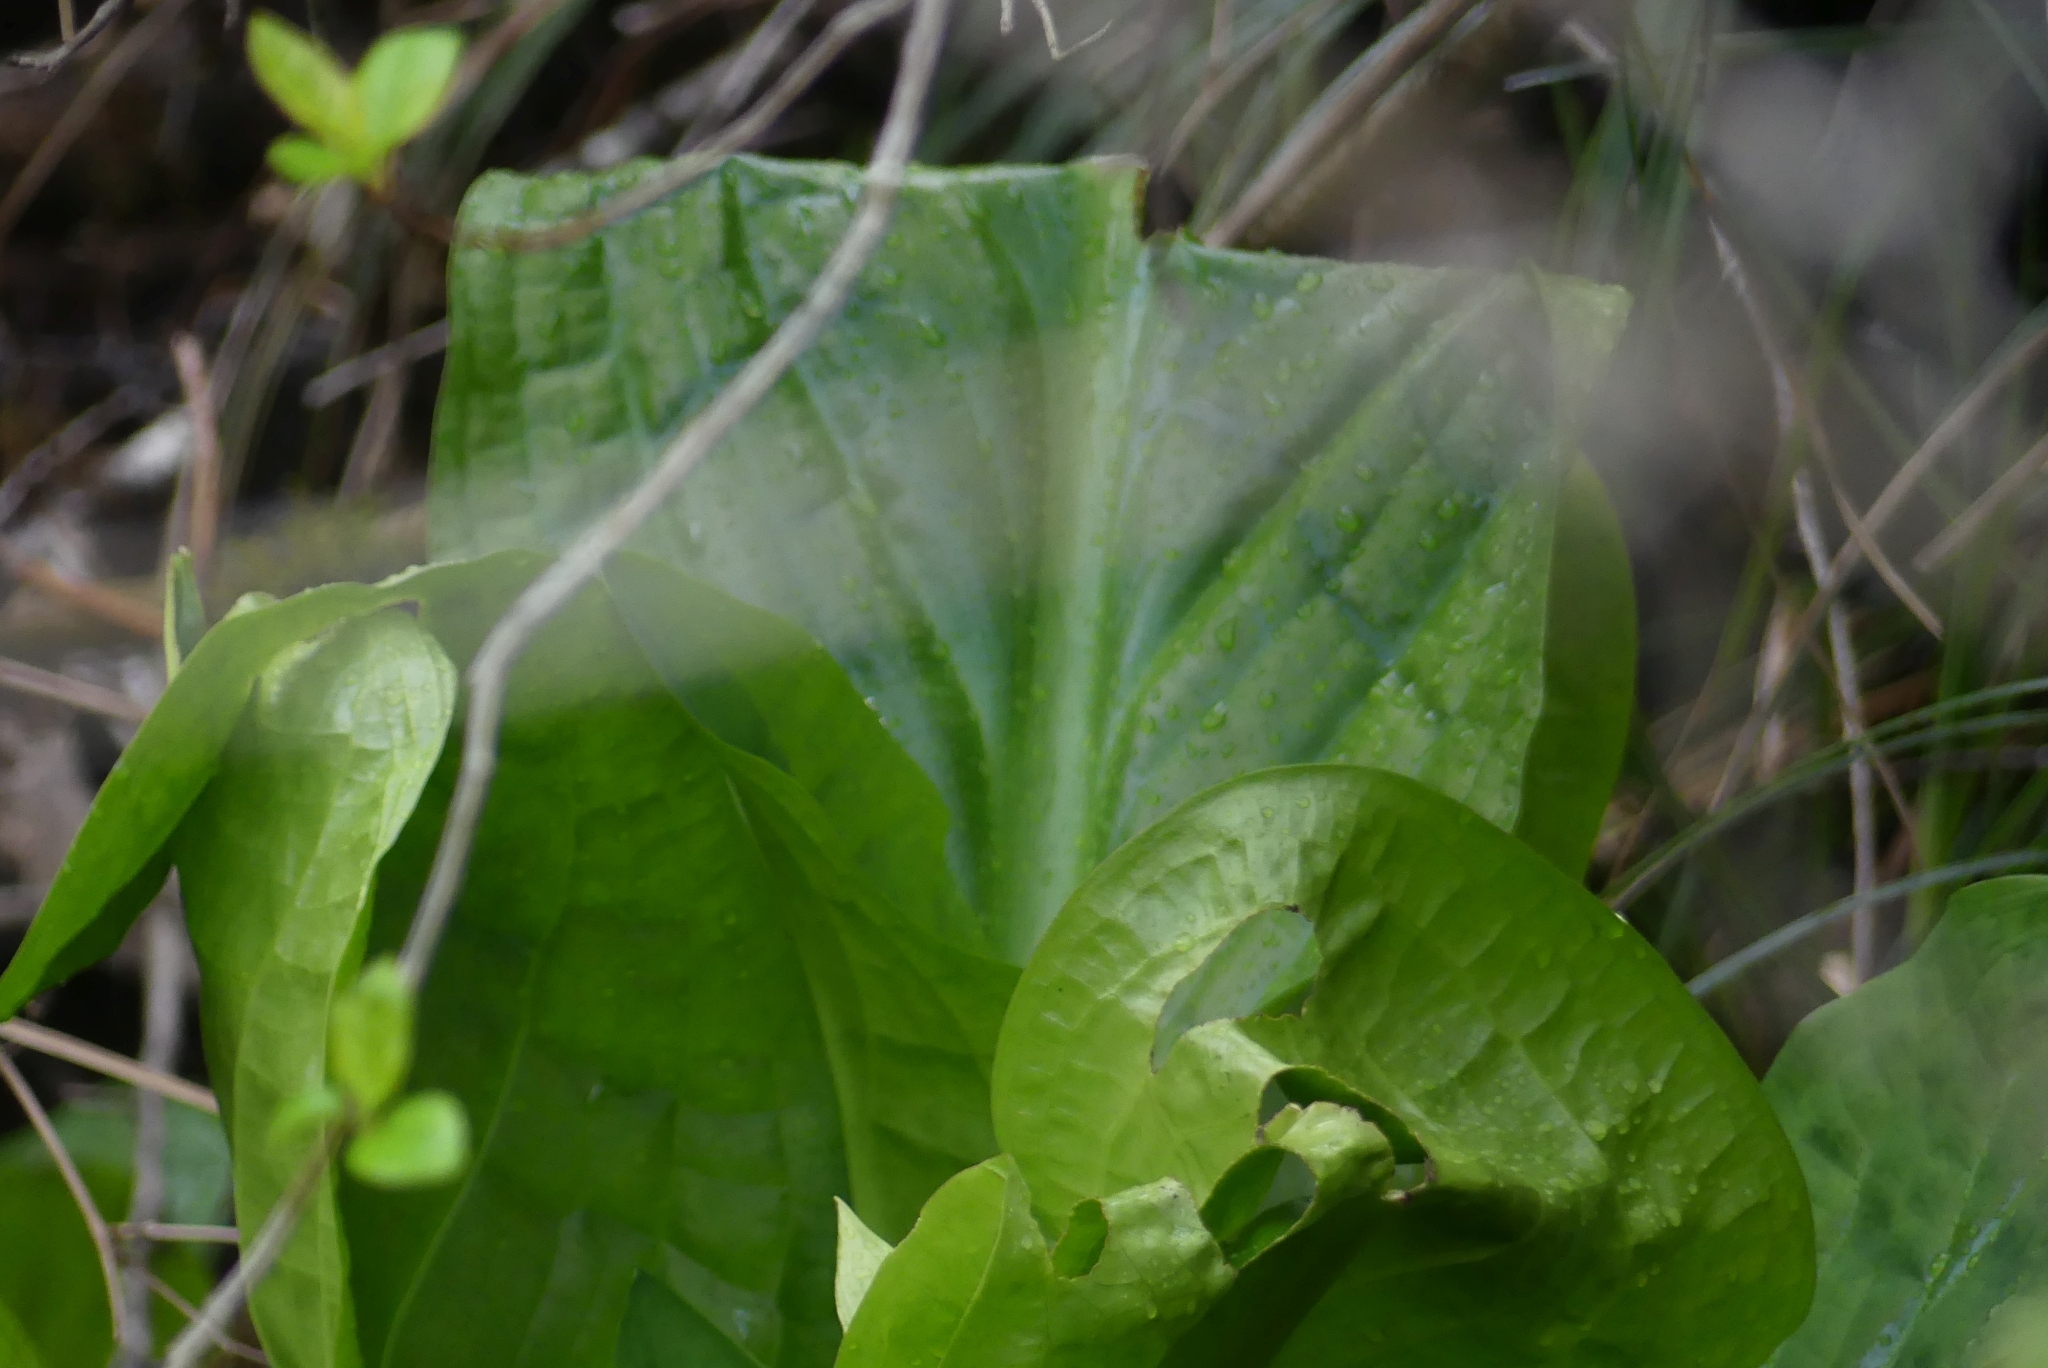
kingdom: Plantae
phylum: Tracheophyta
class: Liliopsida
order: Alismatales
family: Araceae
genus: Lysichiton
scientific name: Lysichiton americanus
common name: American skunk cabbage
